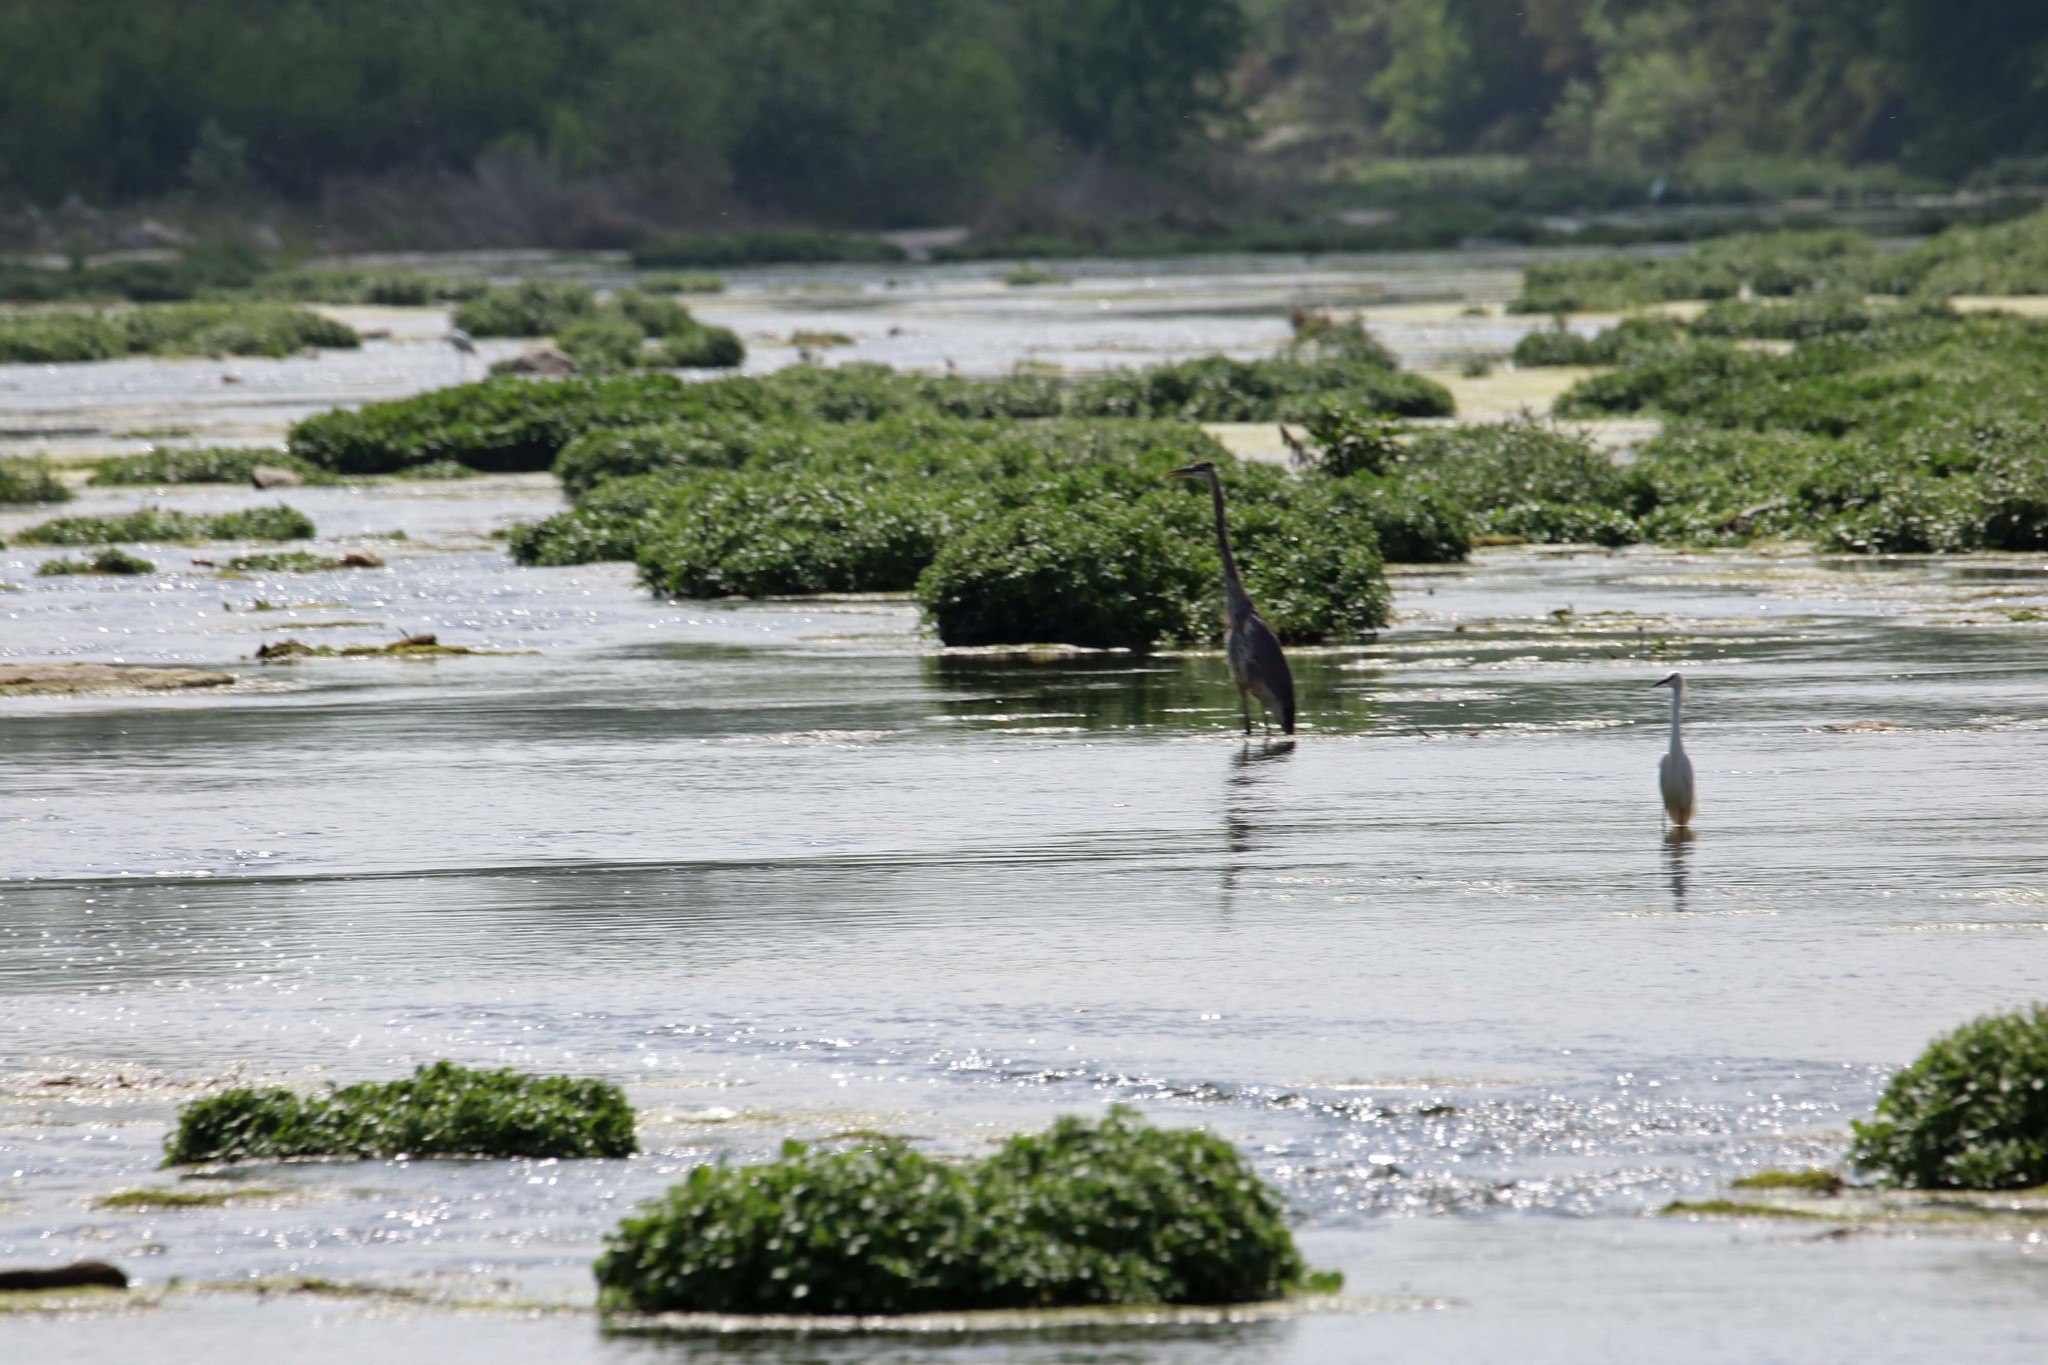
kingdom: Animalia
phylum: Chordata
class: Aves
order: Pelecaniformes
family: Ardeidae
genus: Ardea
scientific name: Ardea herodias
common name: Great blue heron
